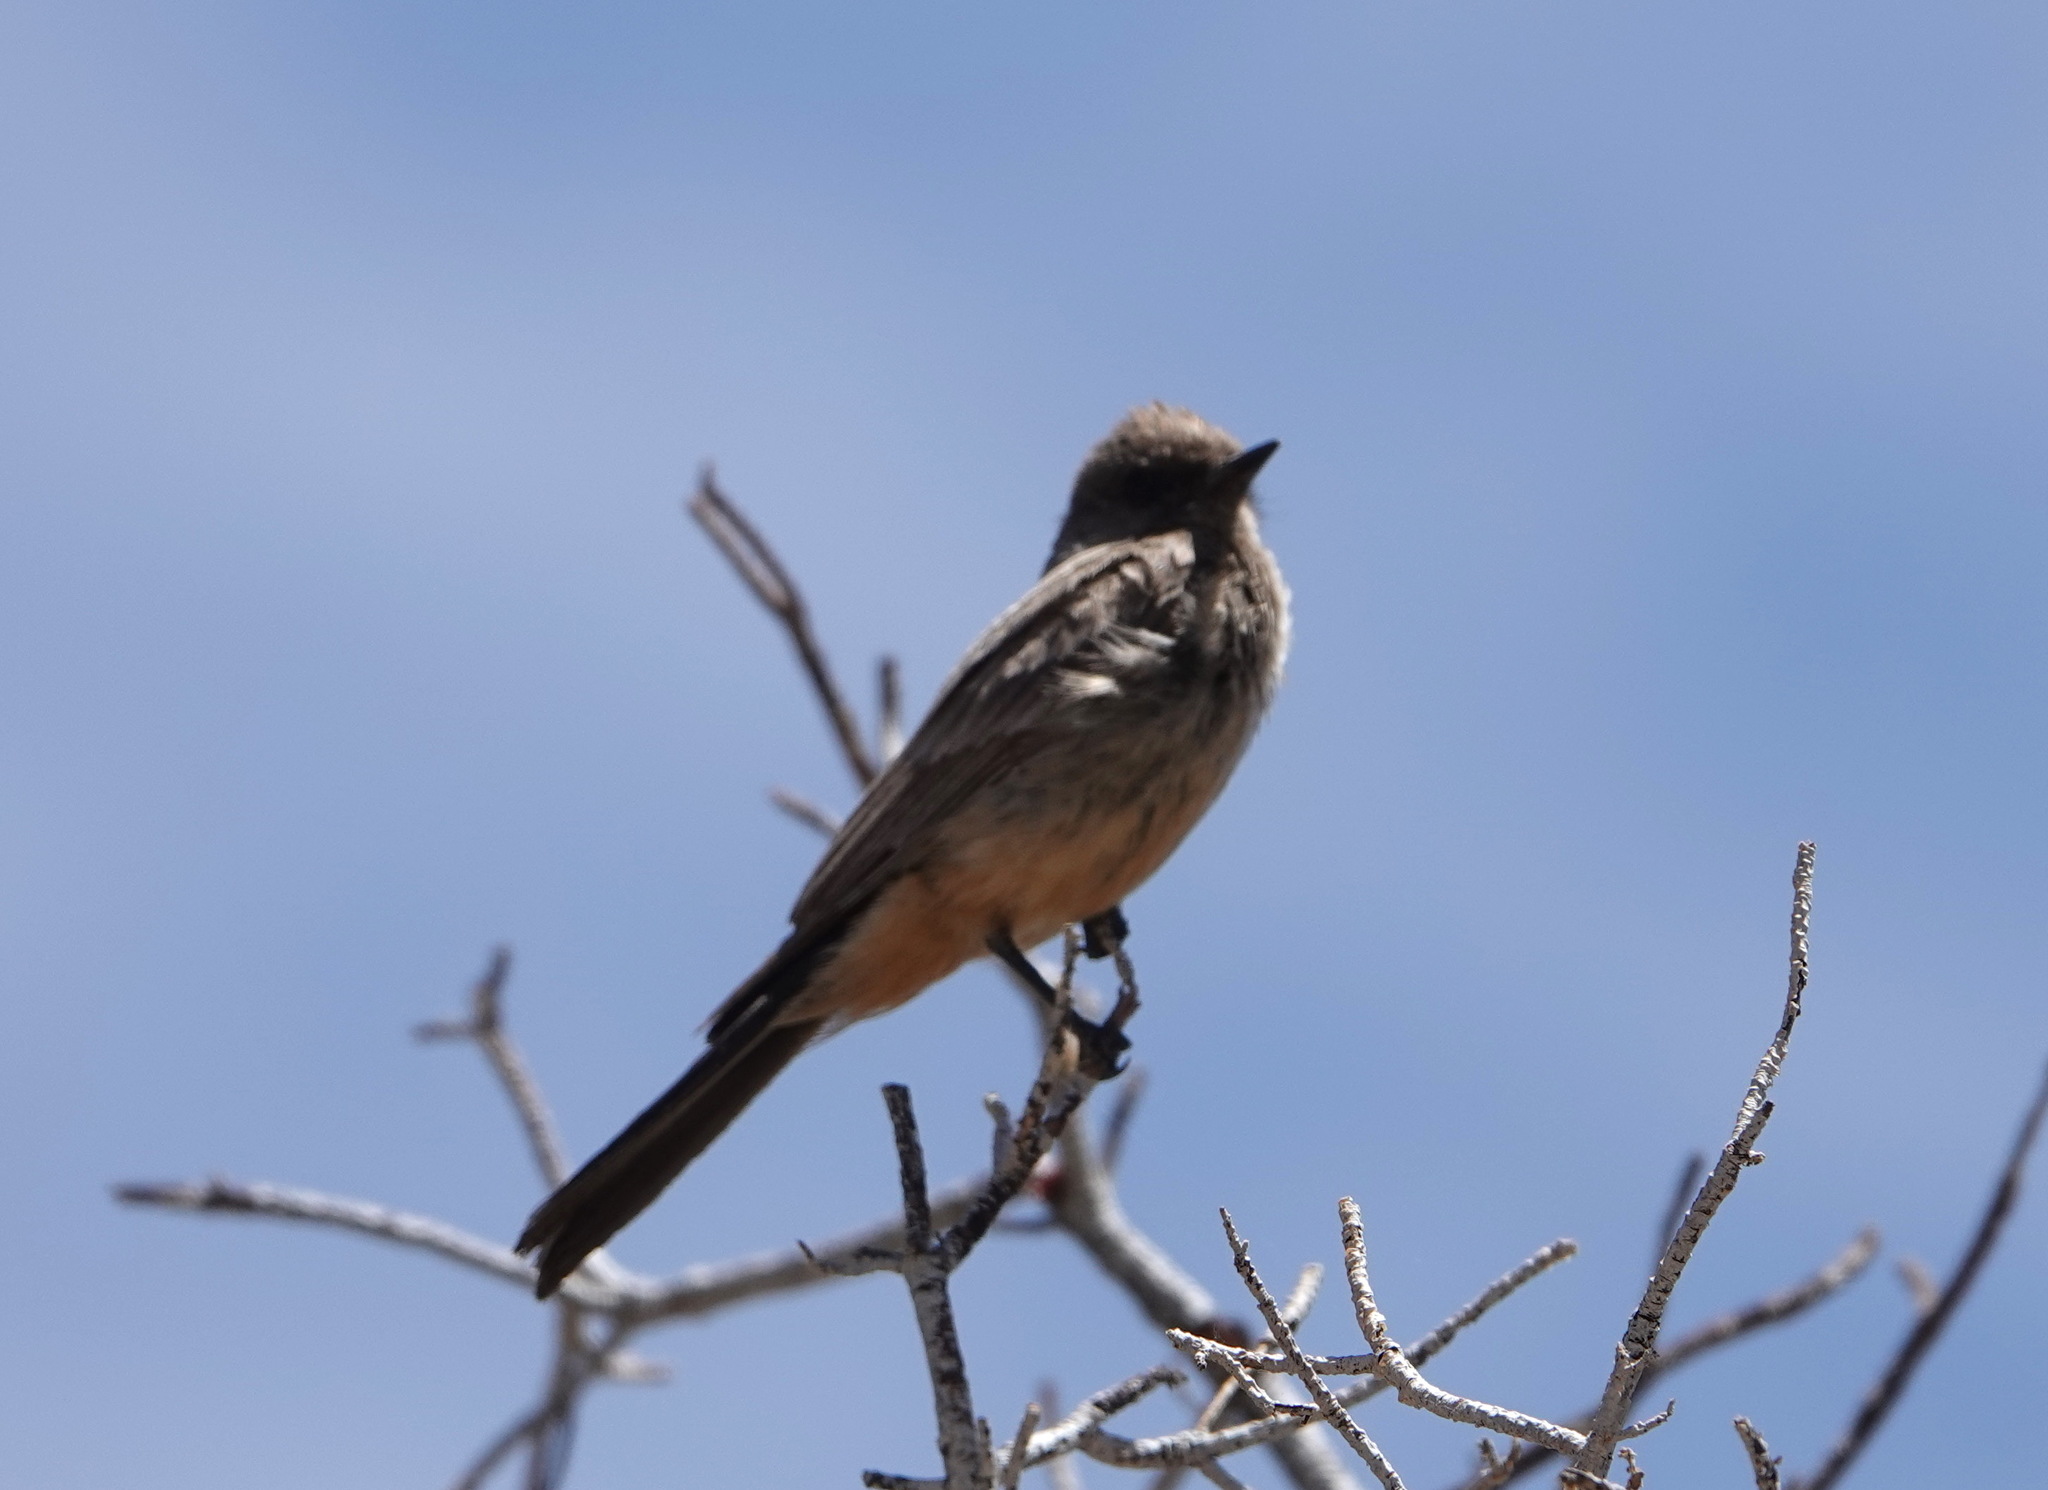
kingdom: Animalia
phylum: Chordata
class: Aves
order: Passeriformes
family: Tyrannidae
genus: Sayornis
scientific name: Sayornis saya
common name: Say's phoebe
